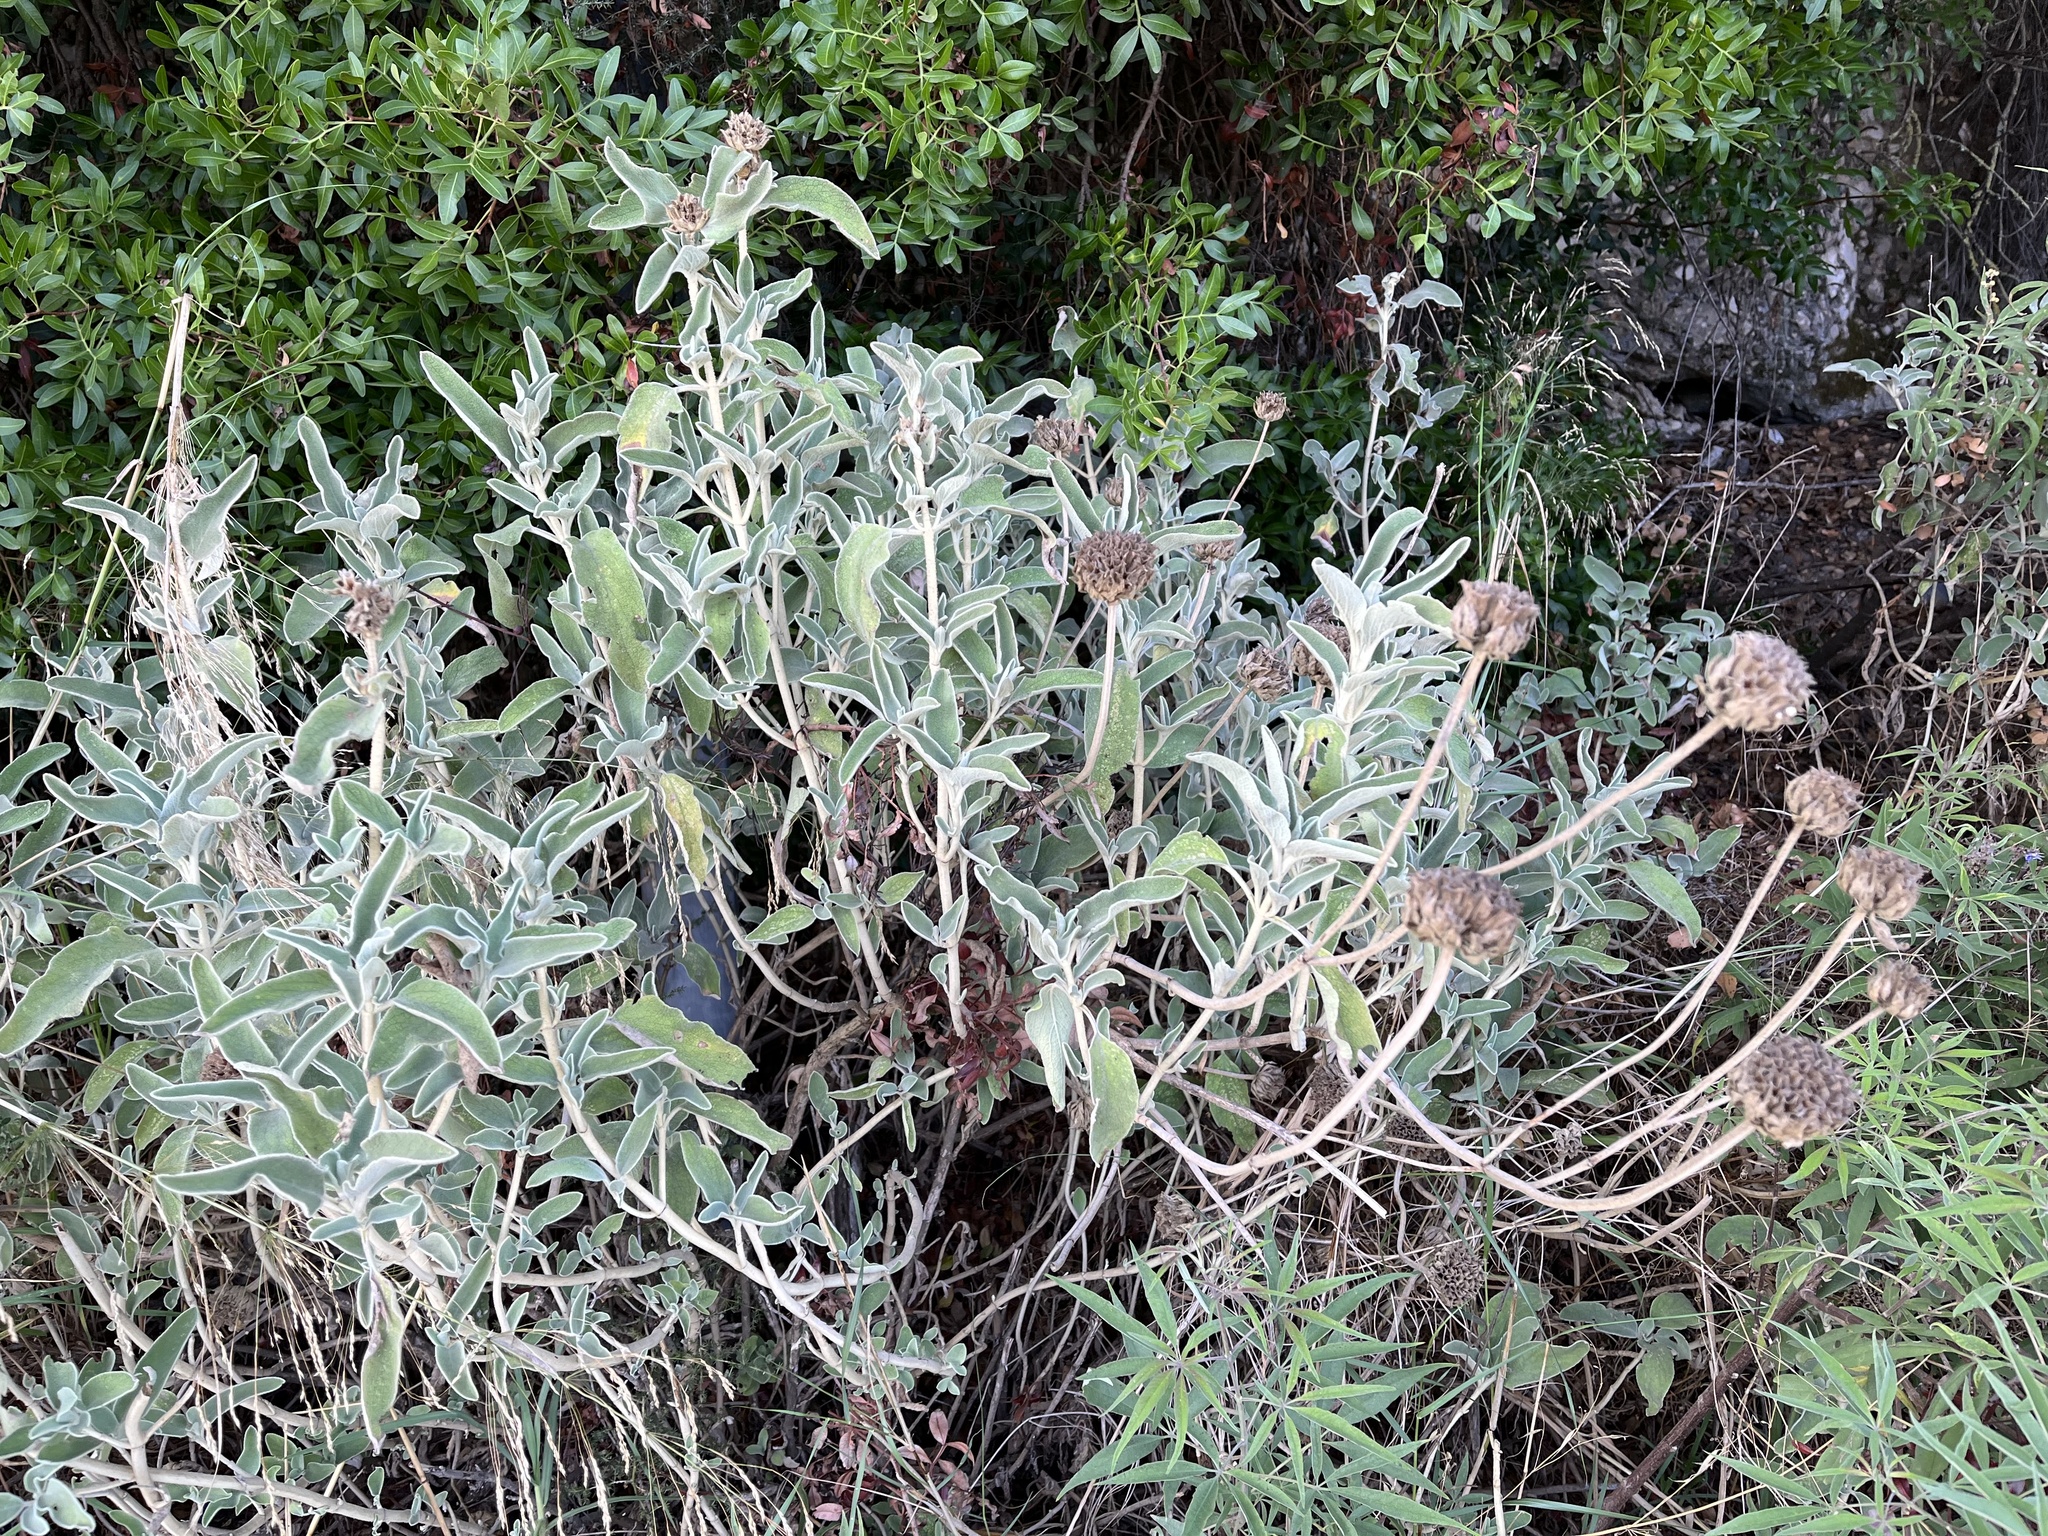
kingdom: Plantae
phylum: Tracheophyta
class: Magnoliopsida
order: Lamiales
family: Lamiaceae
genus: Phlomis
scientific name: Phlomis fruticosa
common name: Jerusalem sage
